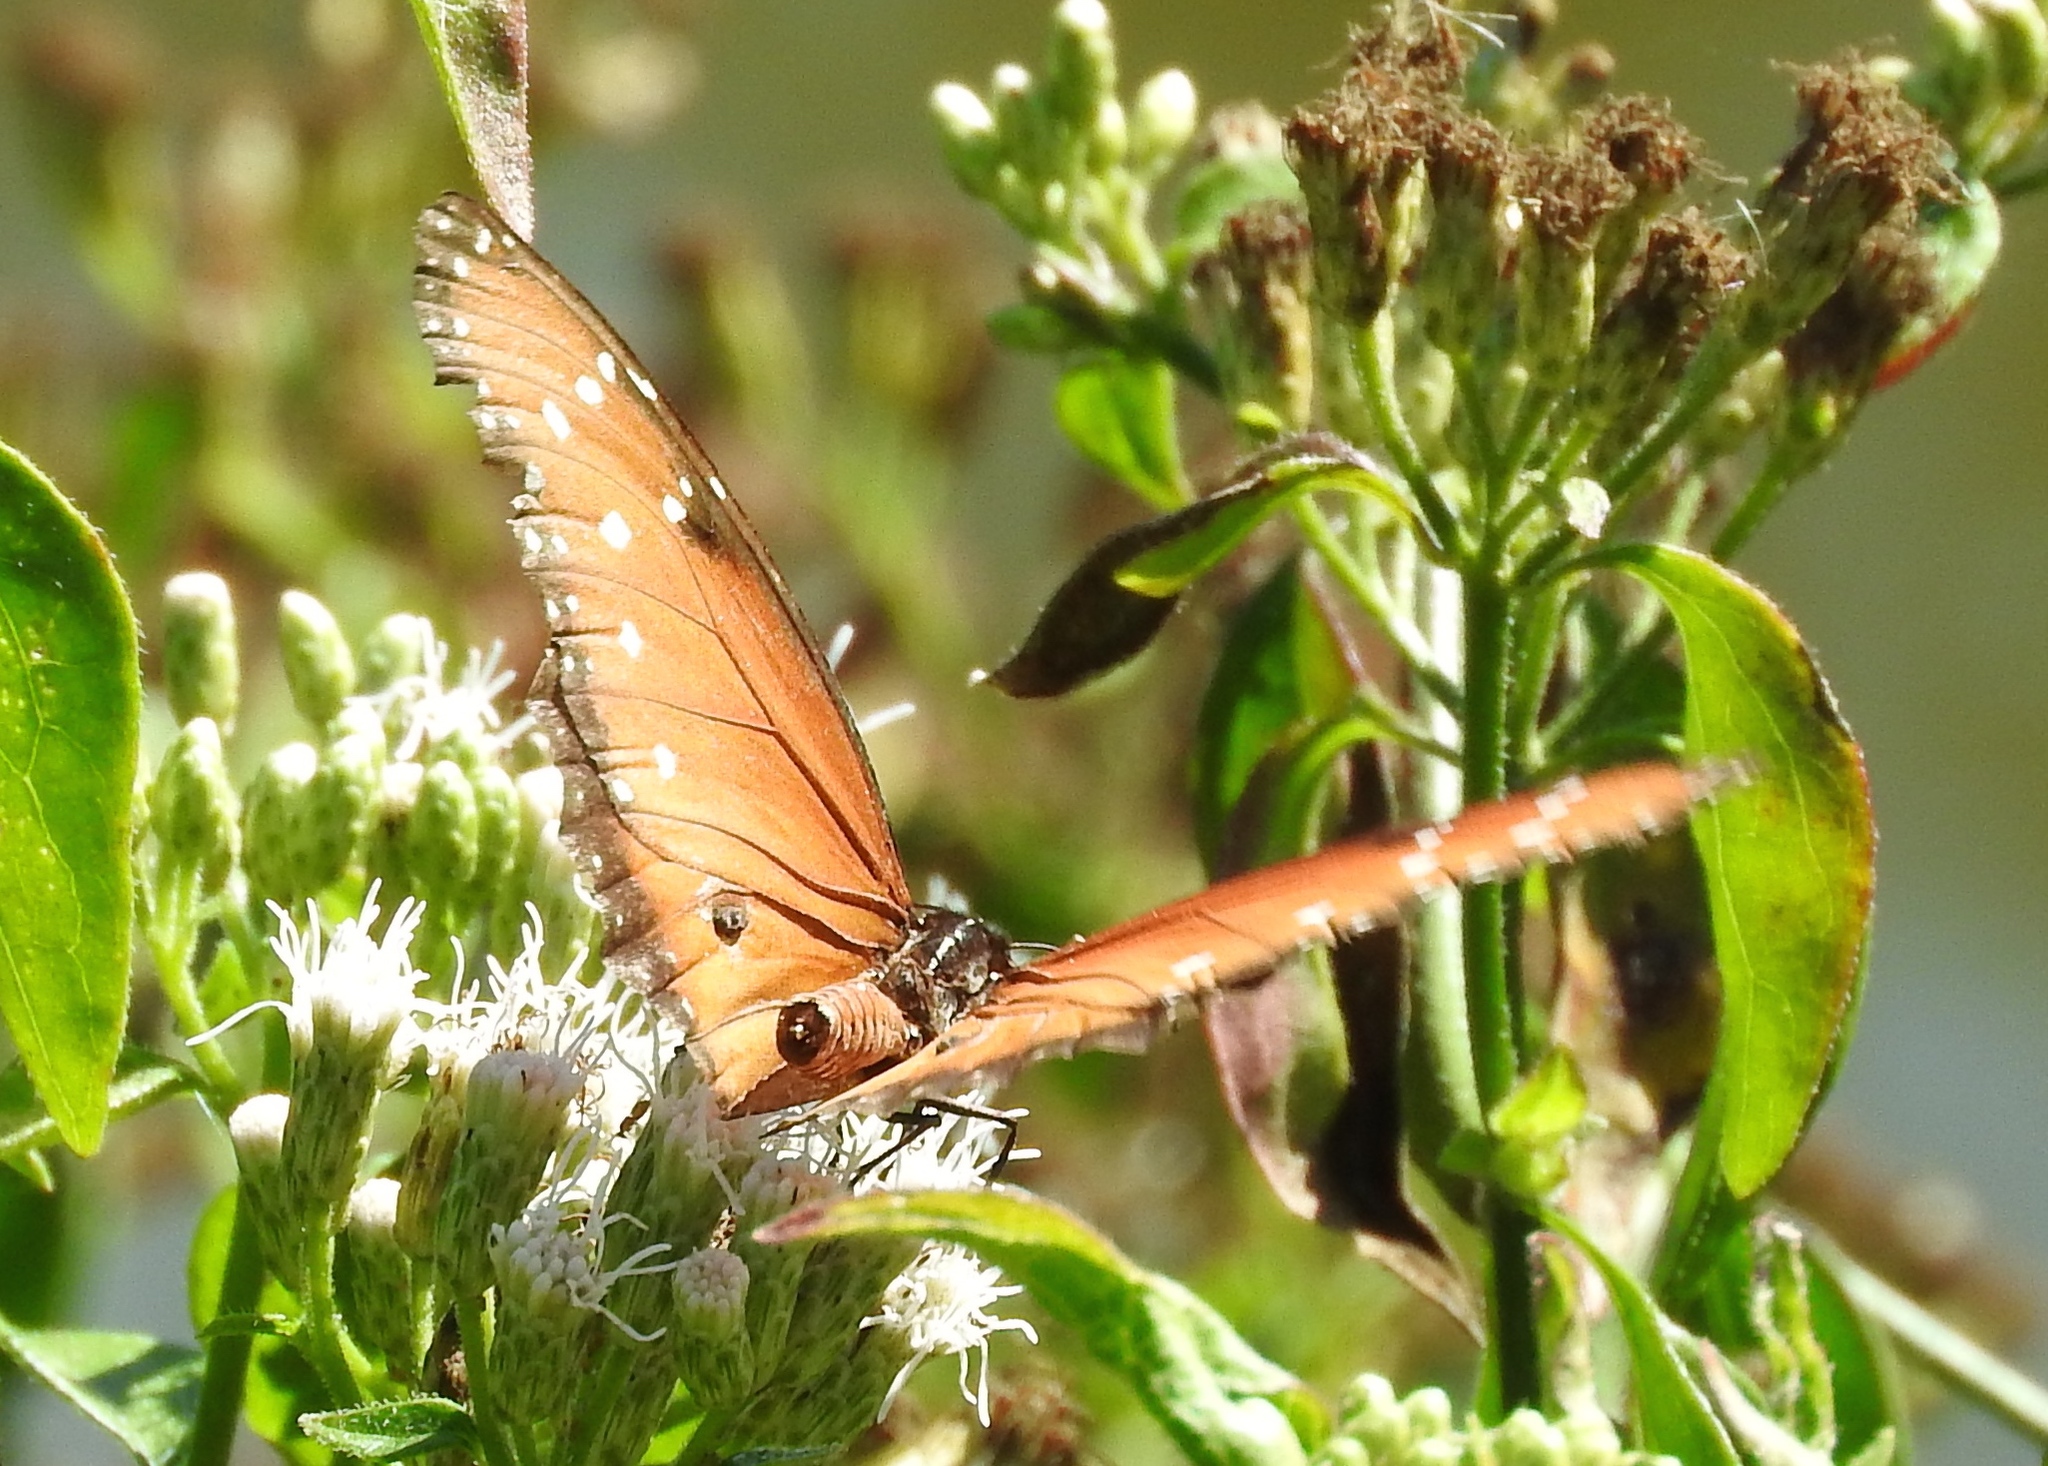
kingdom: Animalia
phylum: Arthropoda
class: Insecta
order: Lepidoptera
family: Nymphalidae
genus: Danaus
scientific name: Danaus gilippus
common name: Queen
